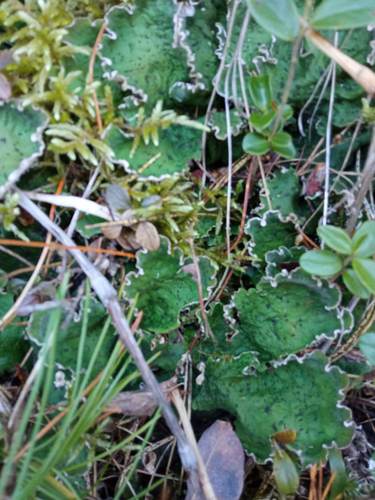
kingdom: Fungi
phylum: Ascomycota
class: Lecanoromycetes
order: Peltigerales
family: Peltigeraceae
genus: Peltigera
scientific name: Peltigera
